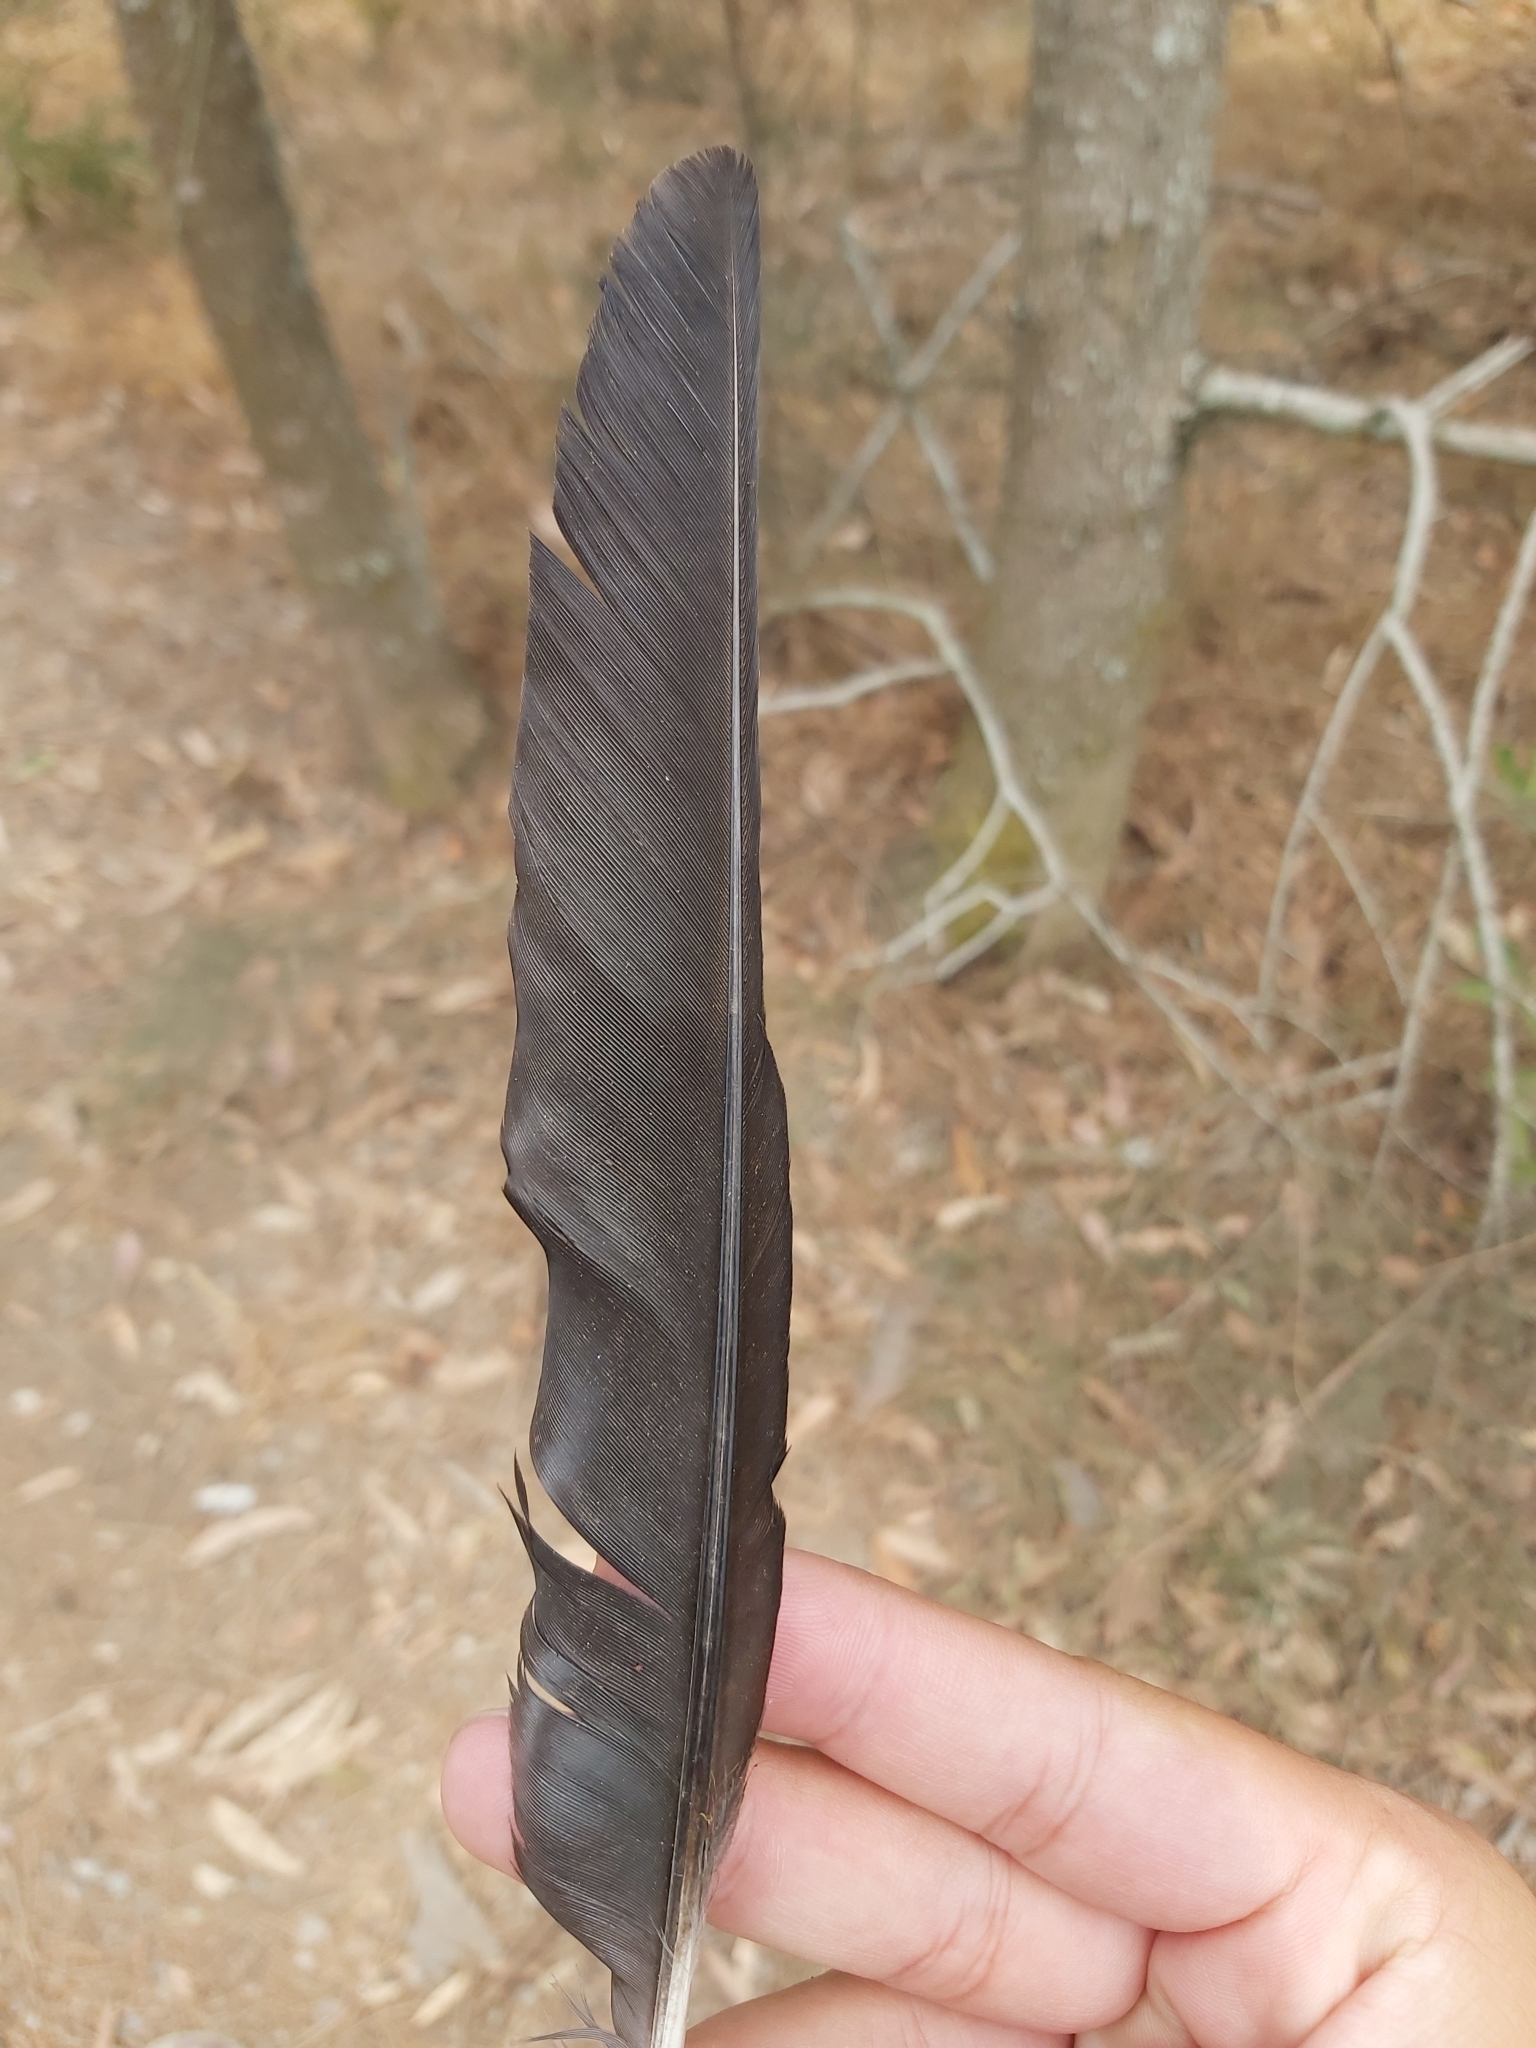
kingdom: Animalia
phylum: Chordata
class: Aves
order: Passeriformes
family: Cracticidae
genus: Gymnorhina
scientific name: Gymnorhina tibicen
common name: Australian magpie
